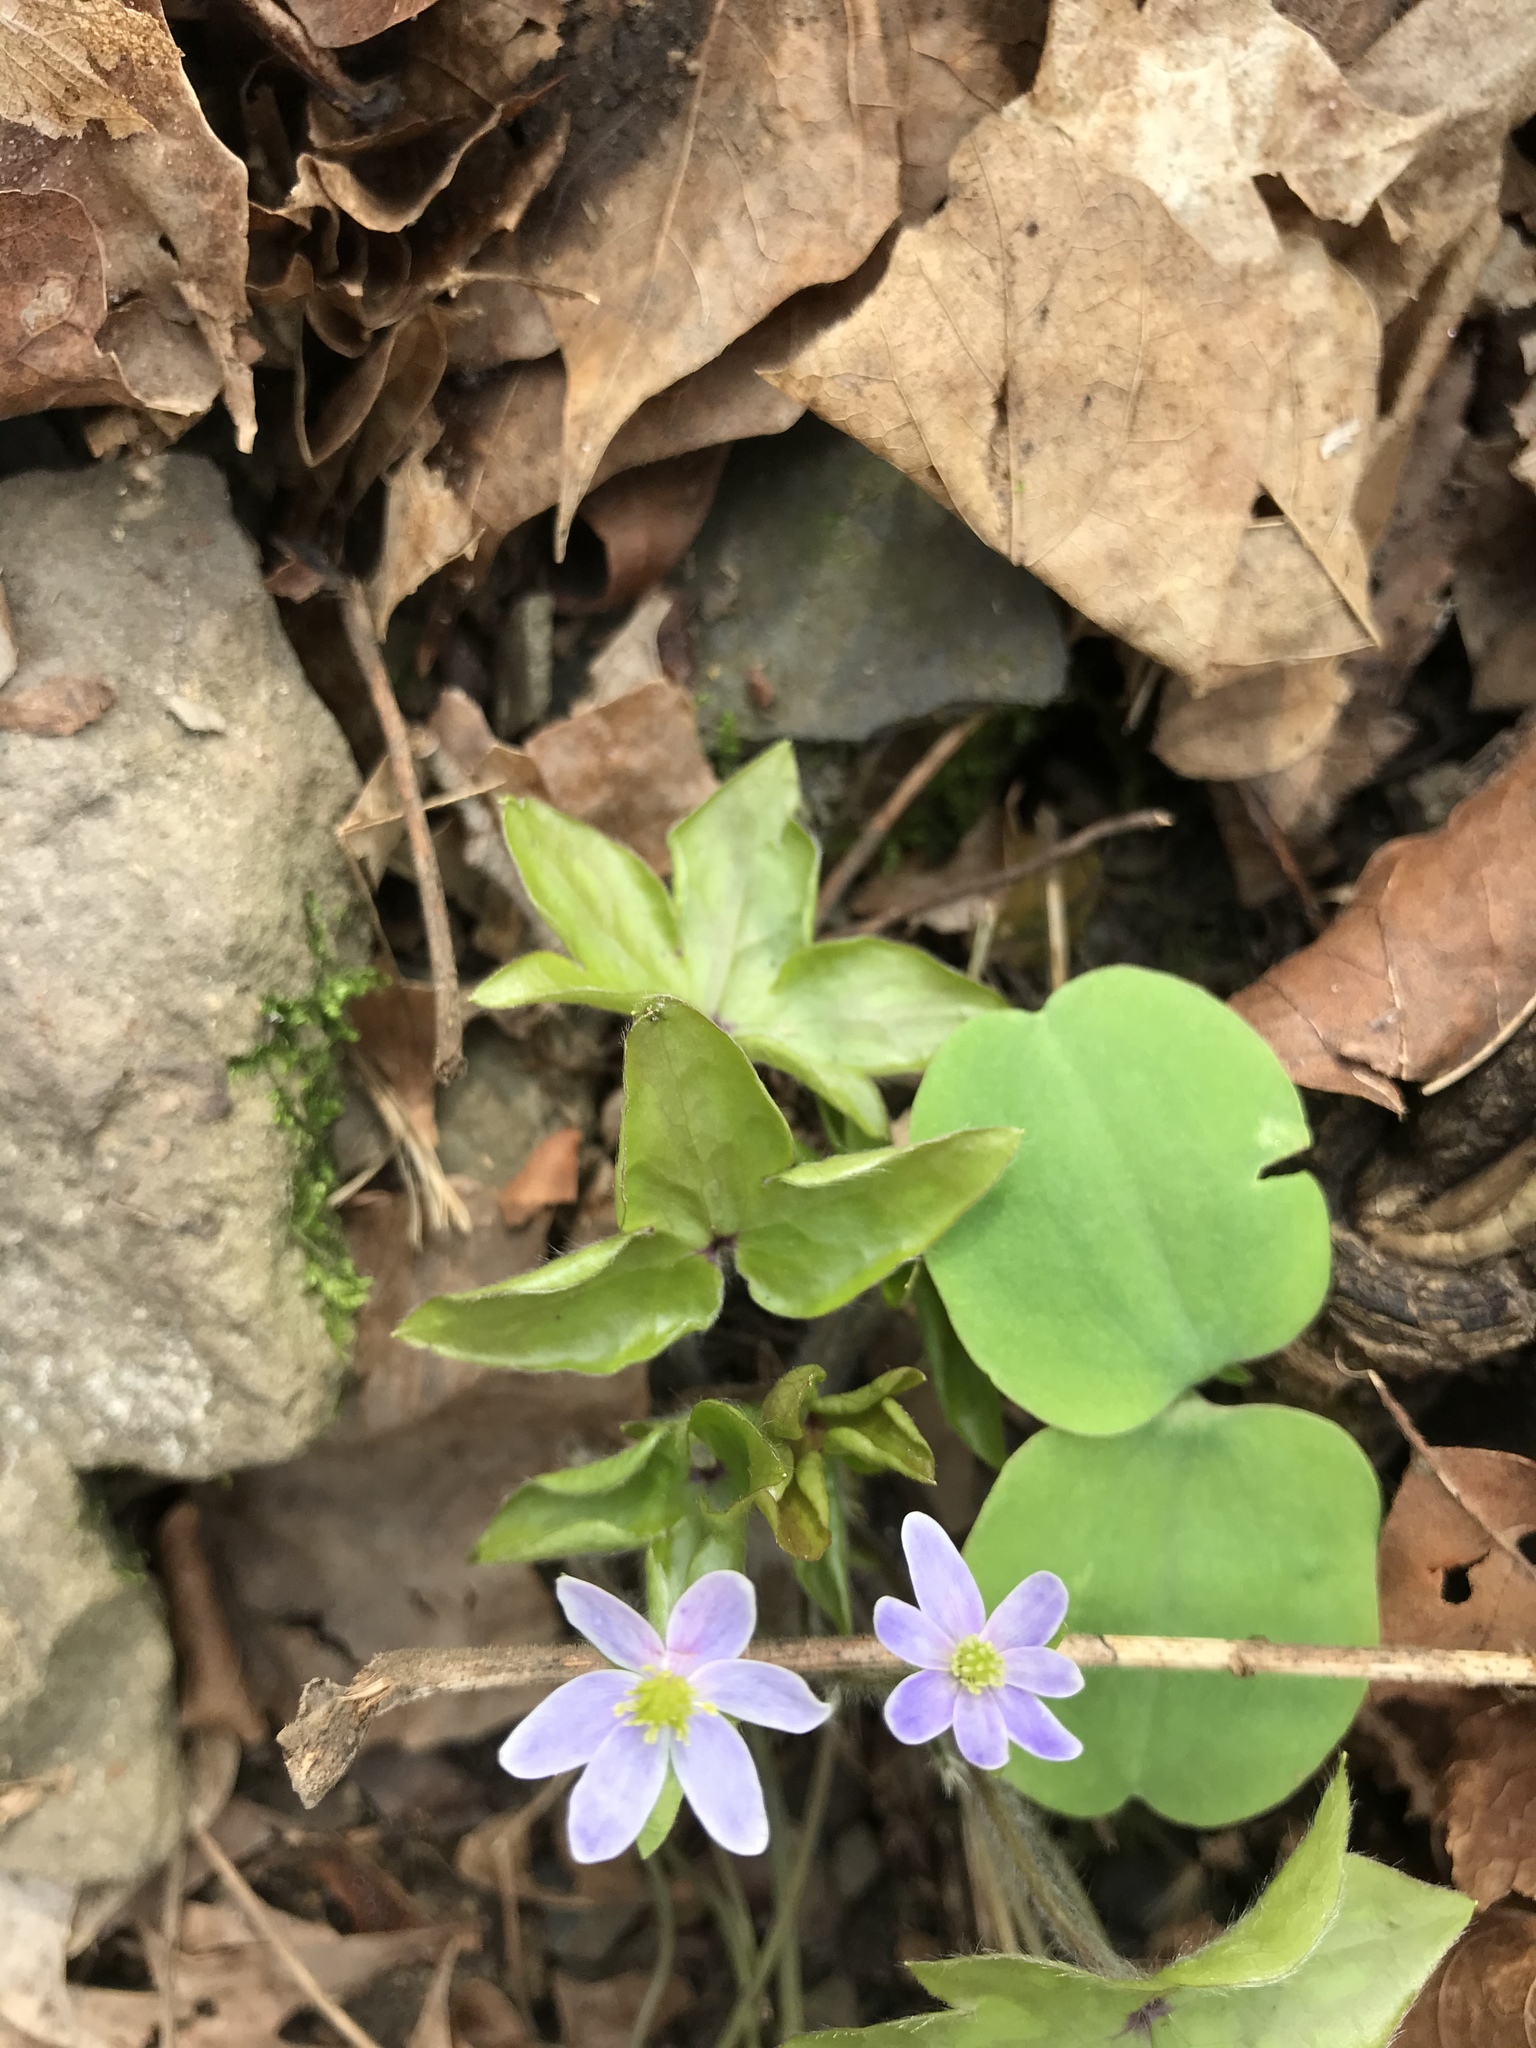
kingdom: Plantae
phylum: Tracheophyta
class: Magnoliopsida
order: Ranunculales
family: Ranunculaceae
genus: Hepatica
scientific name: Hepatica acutiloba
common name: Sharp-lobed hepatica
